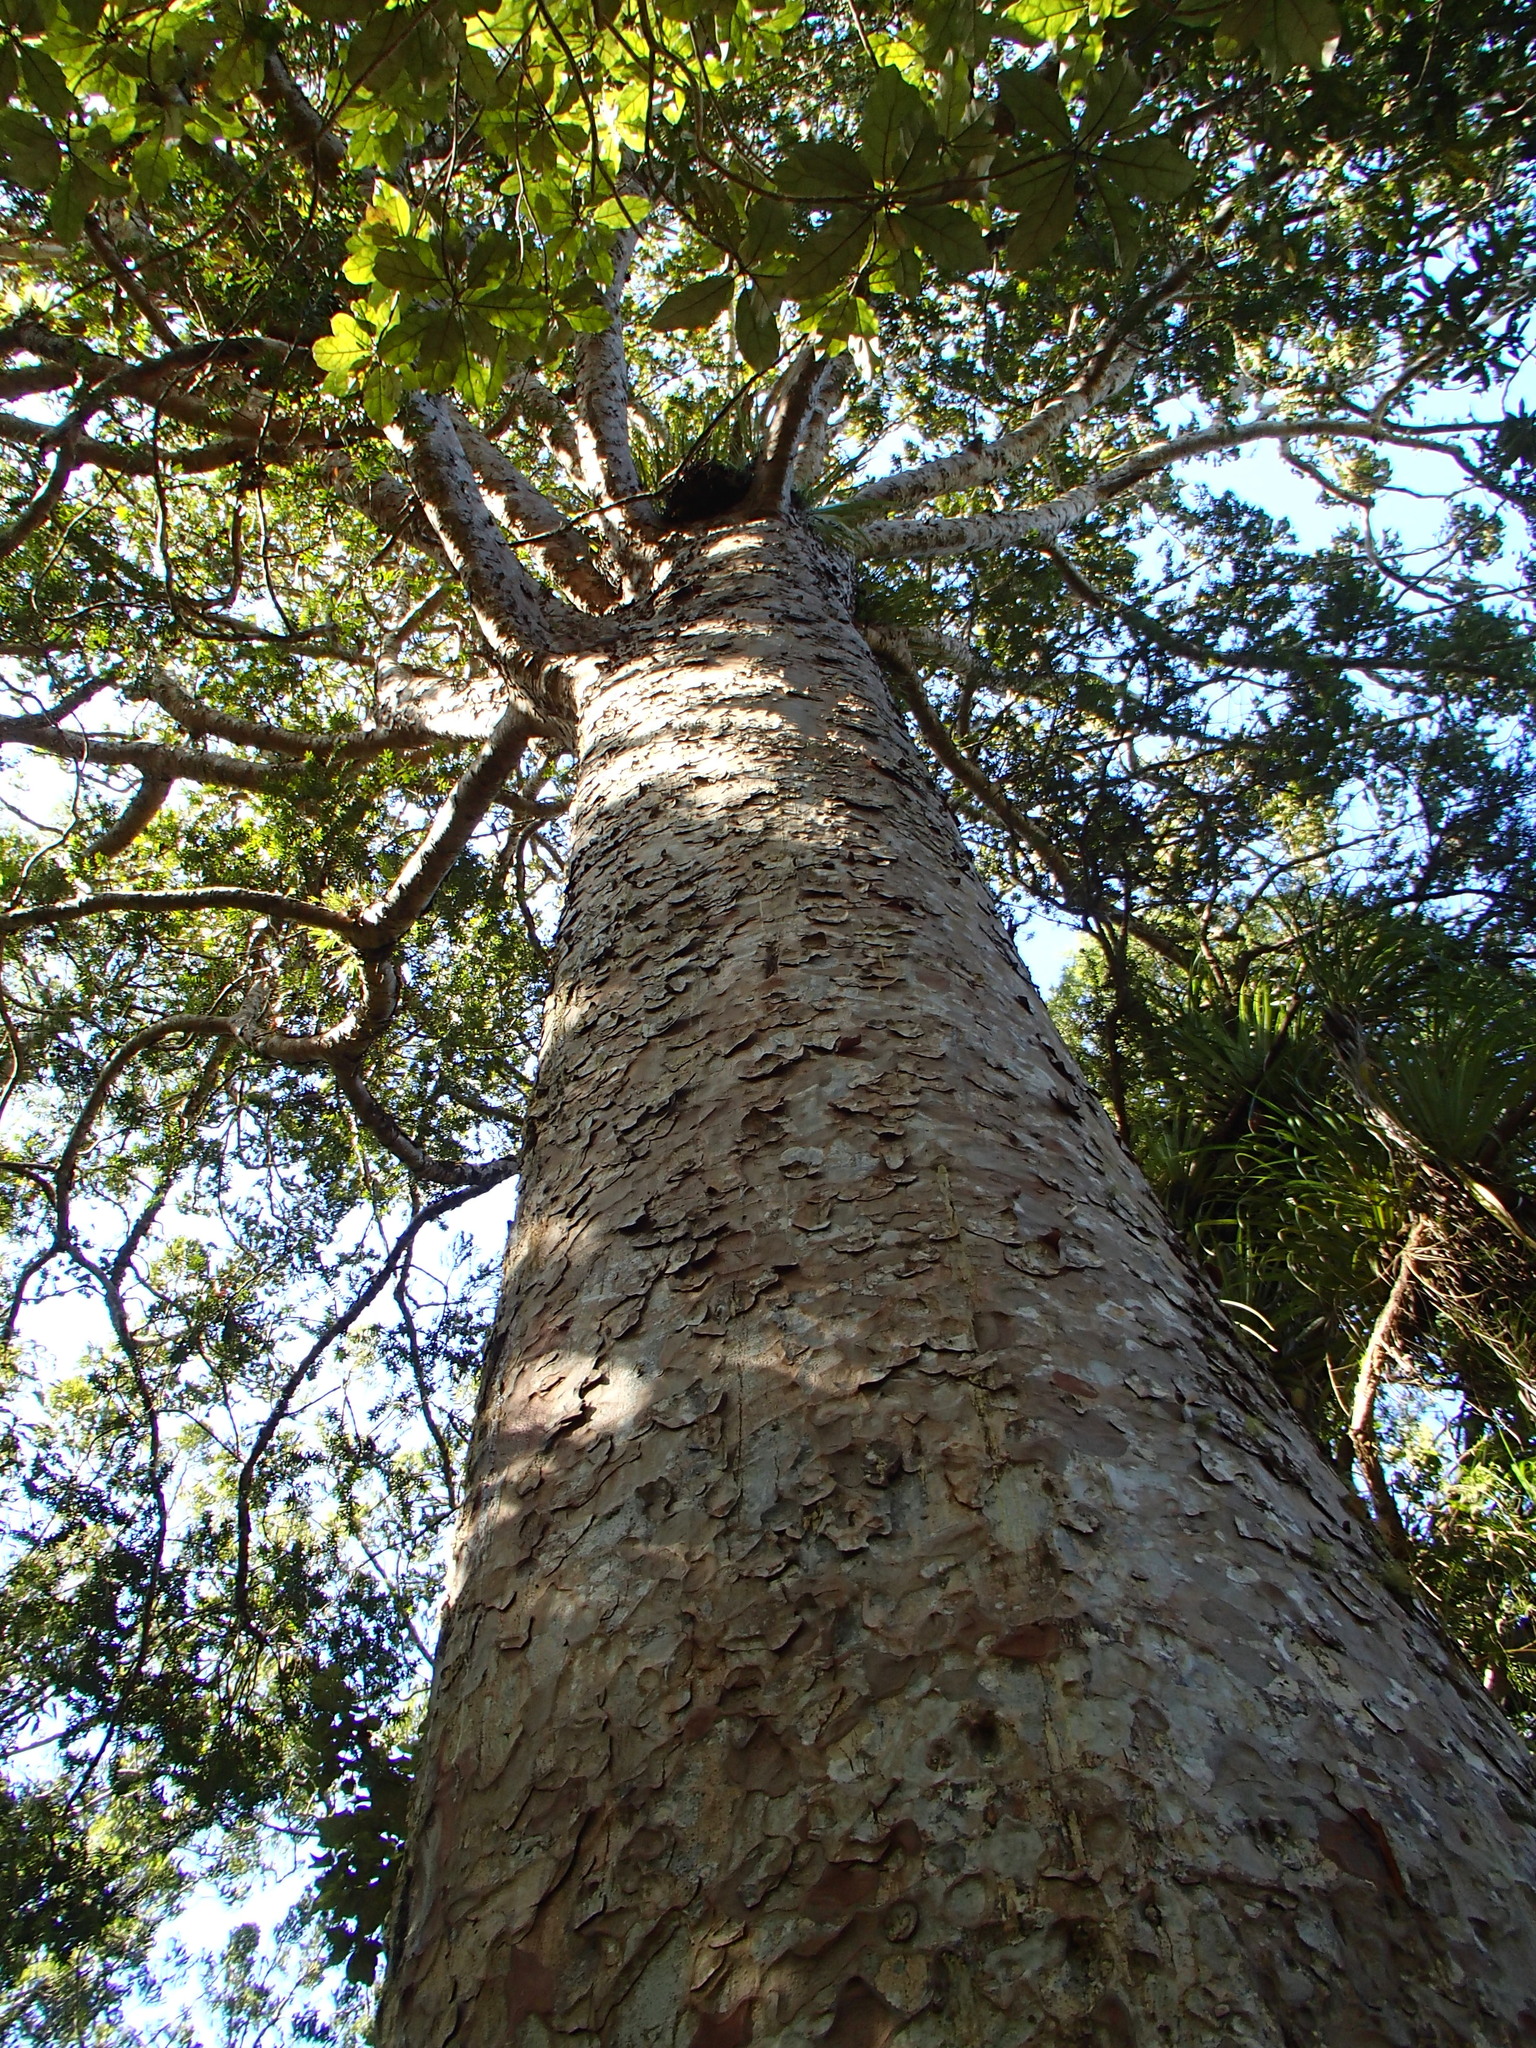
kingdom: Plantae
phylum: Tracheophyta
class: Pinopsida
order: Pinales
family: Araucariaceae
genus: Agathis
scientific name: Agathis australis
